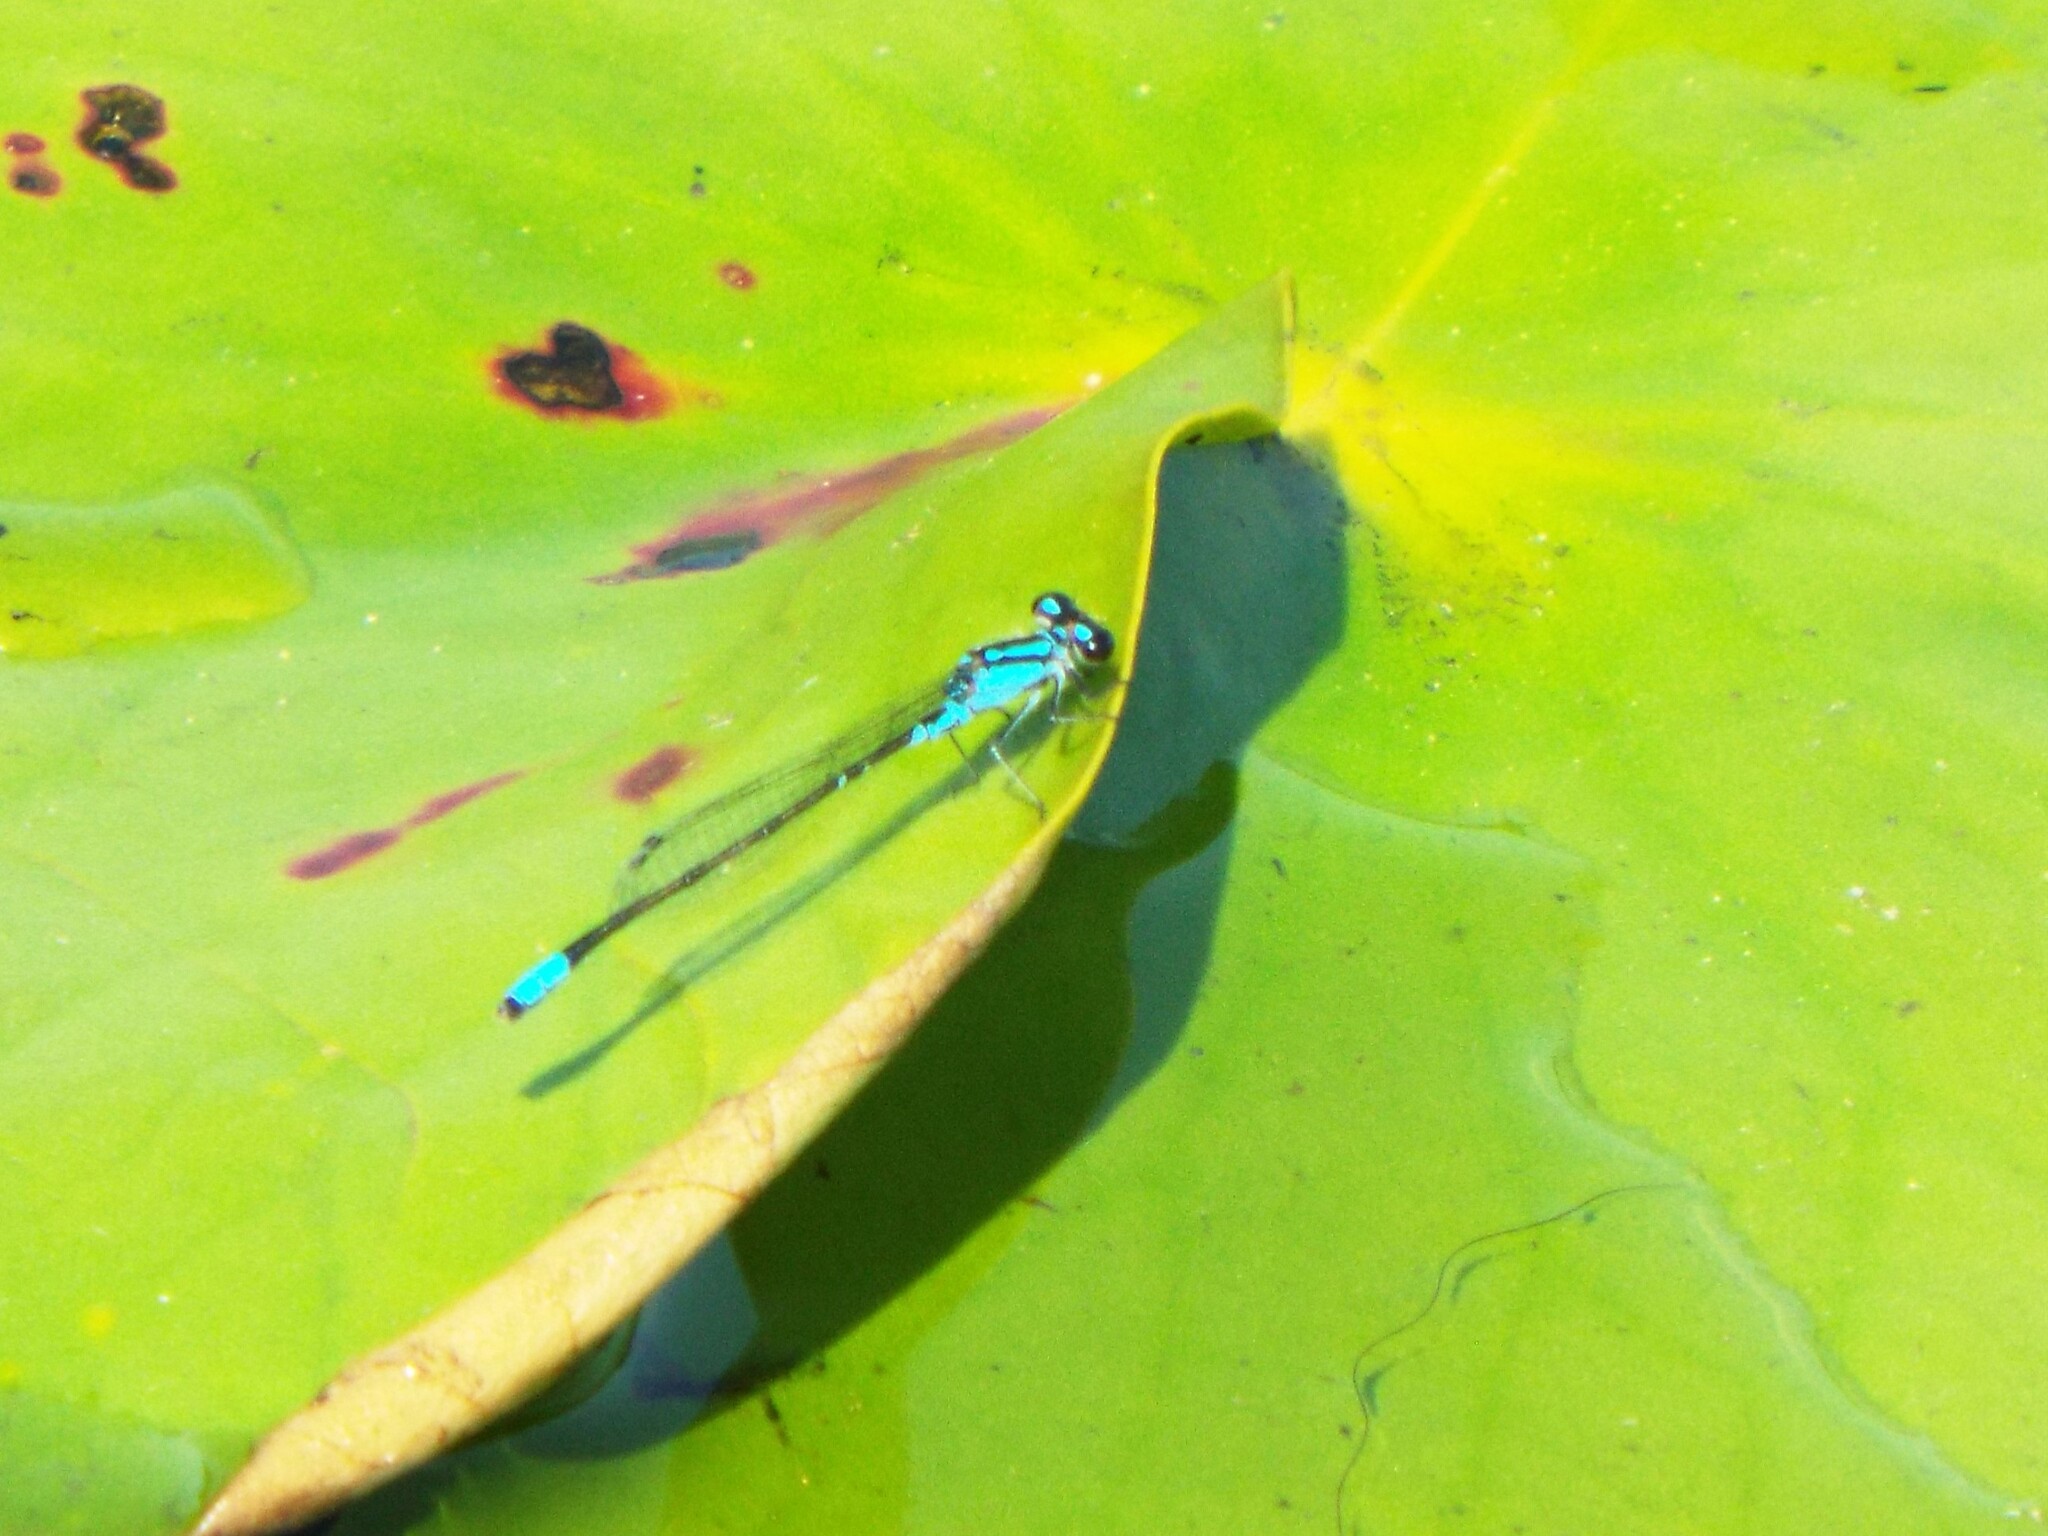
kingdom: Animalia
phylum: Arthropoda
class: Insecta
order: Odonata
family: Coenagrionidae
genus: Enallagma
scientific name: Enallagma geminatum
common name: Skimming bluet
